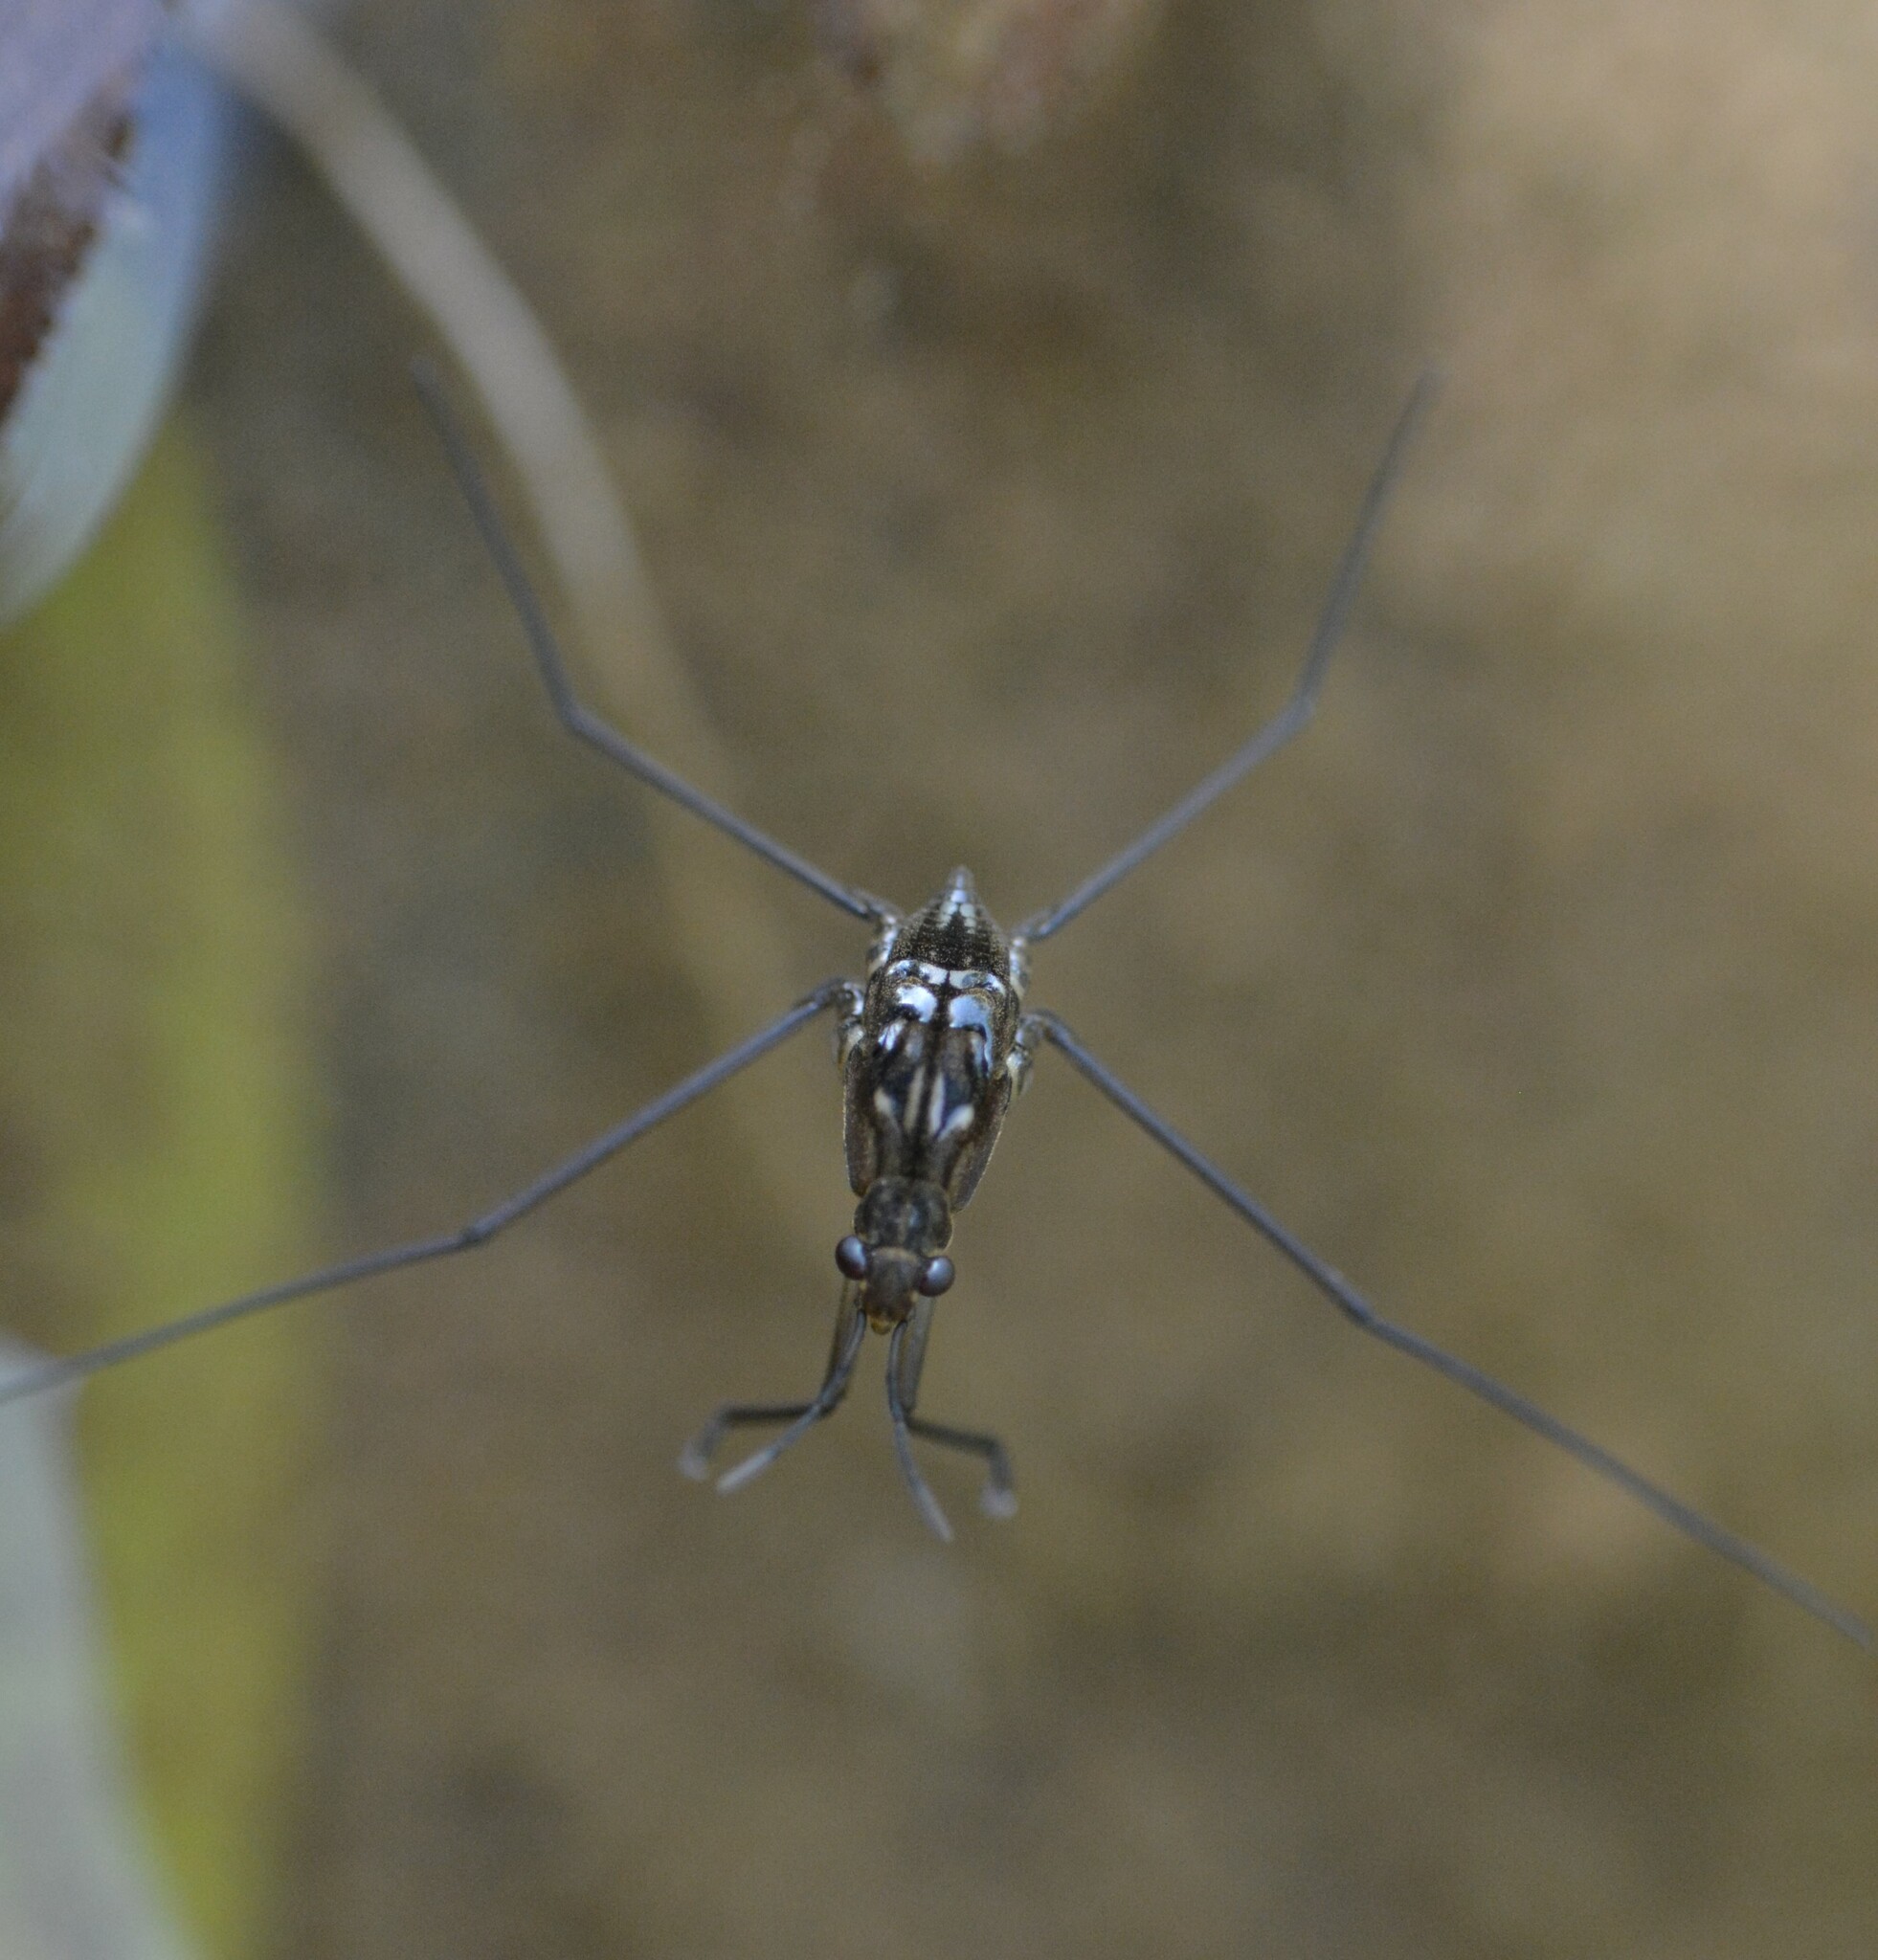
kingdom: Animalia
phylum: Arthropoda
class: Insecta
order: Hemiptera
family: Gerridae
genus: Aquarius
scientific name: Aquarius remigis
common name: Common water strider
